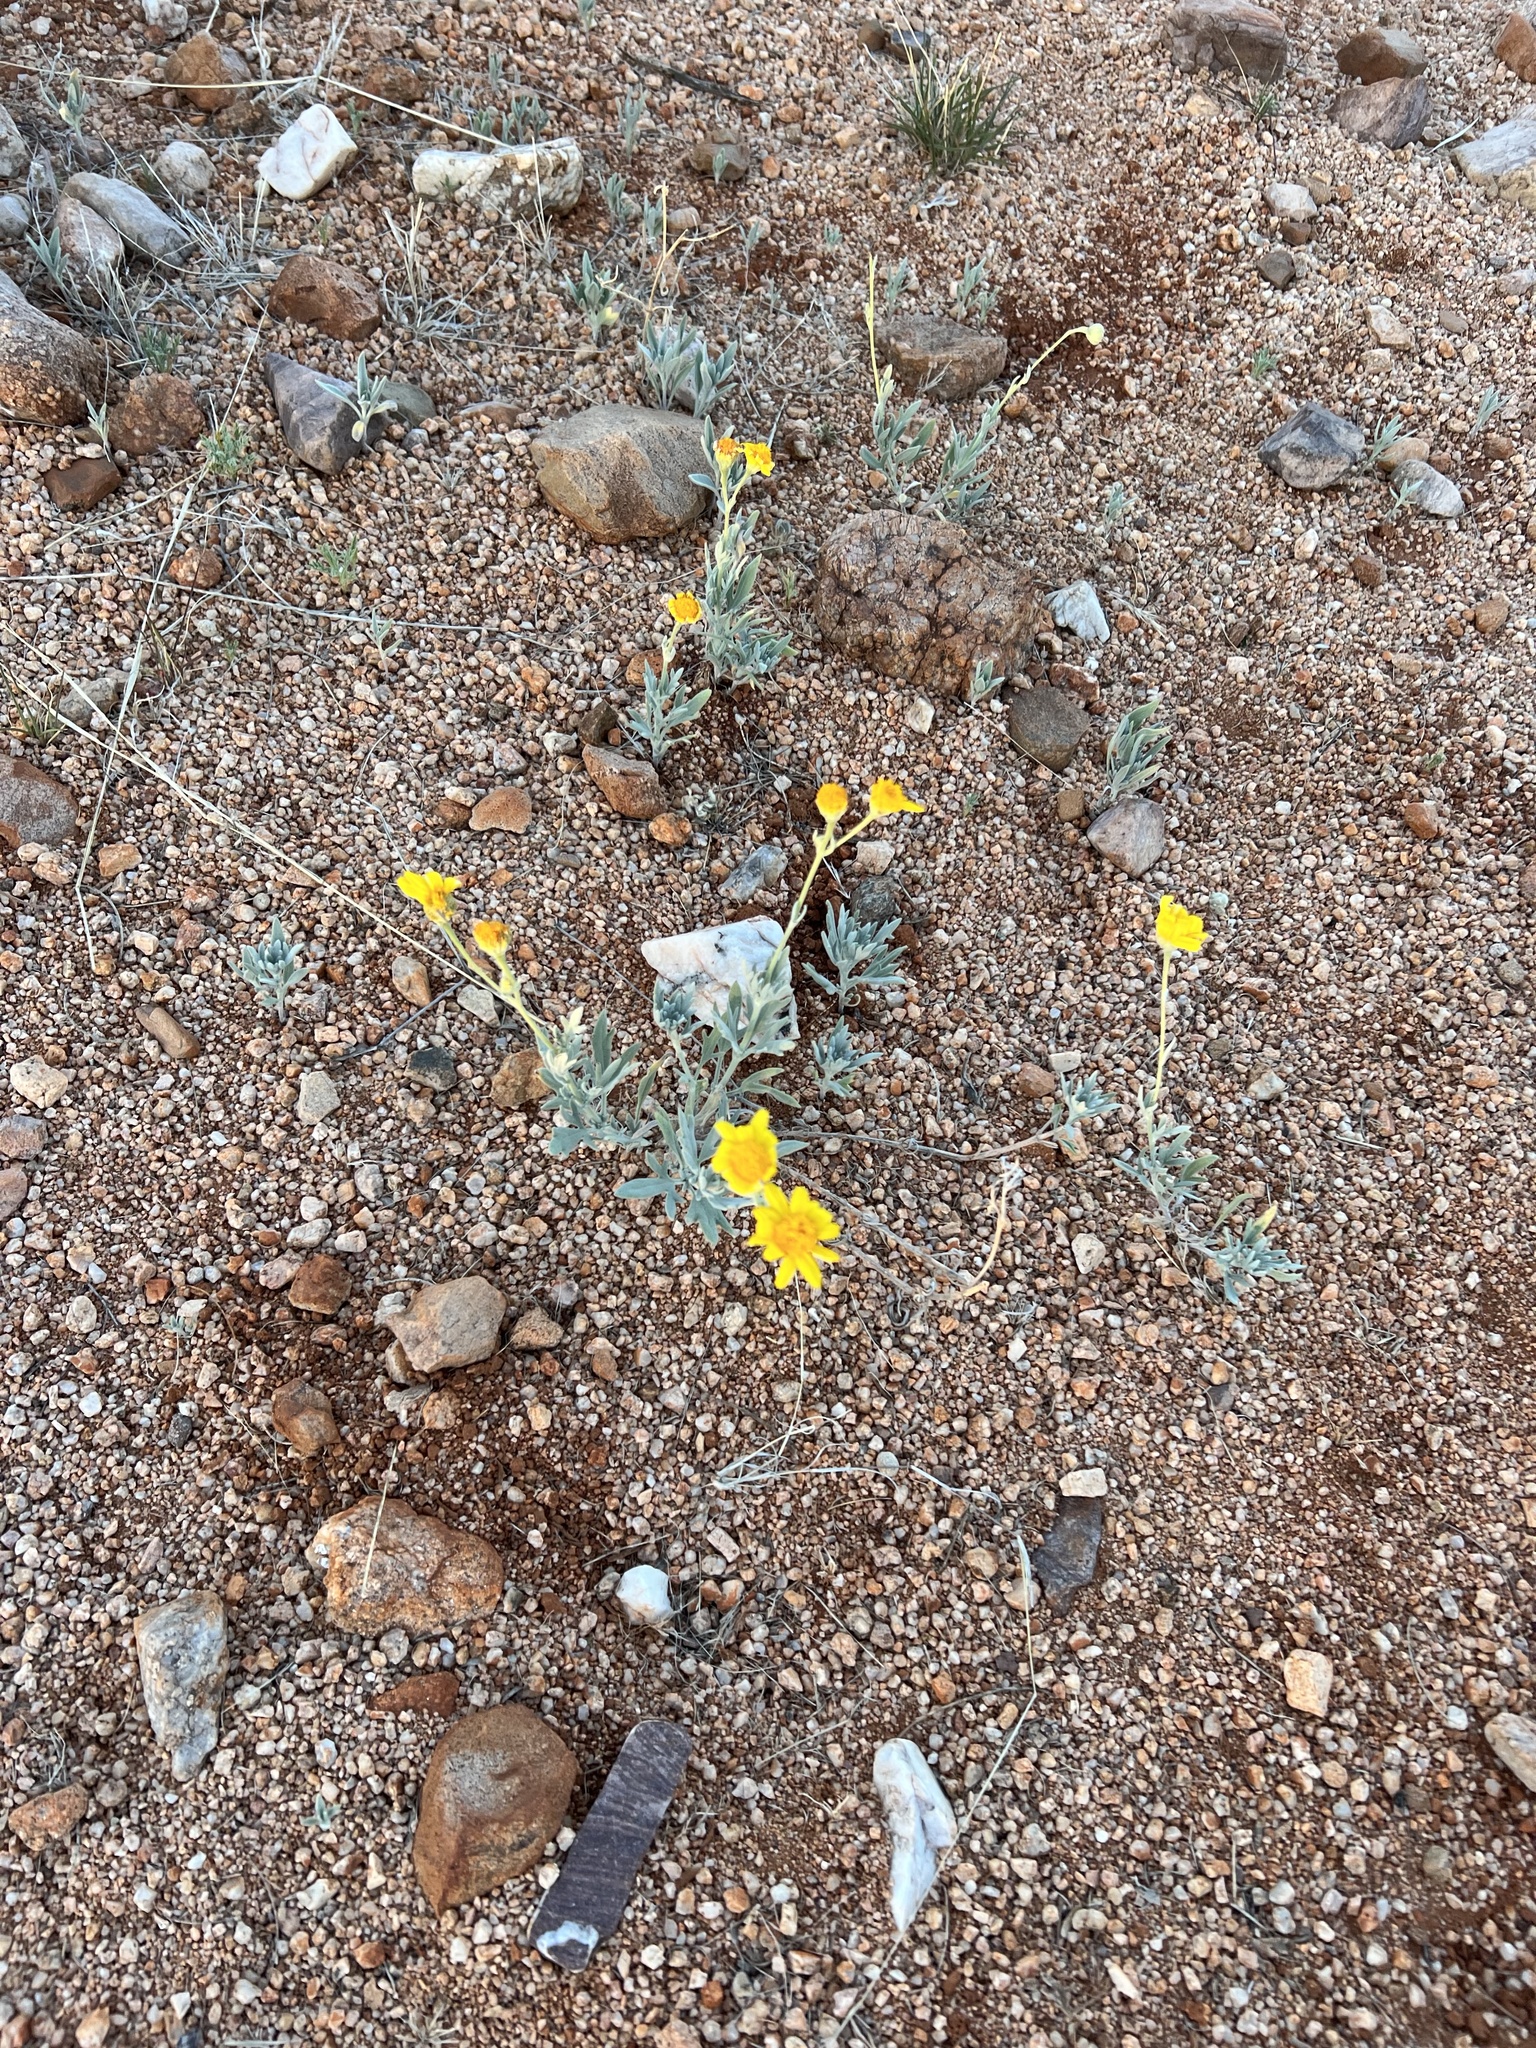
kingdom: Plantae
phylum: Tracheophyta
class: Magnoliopsida
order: Asterales
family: Asteraceae
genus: Picradeniopsis
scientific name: Picradeniopsis absinthifolia
